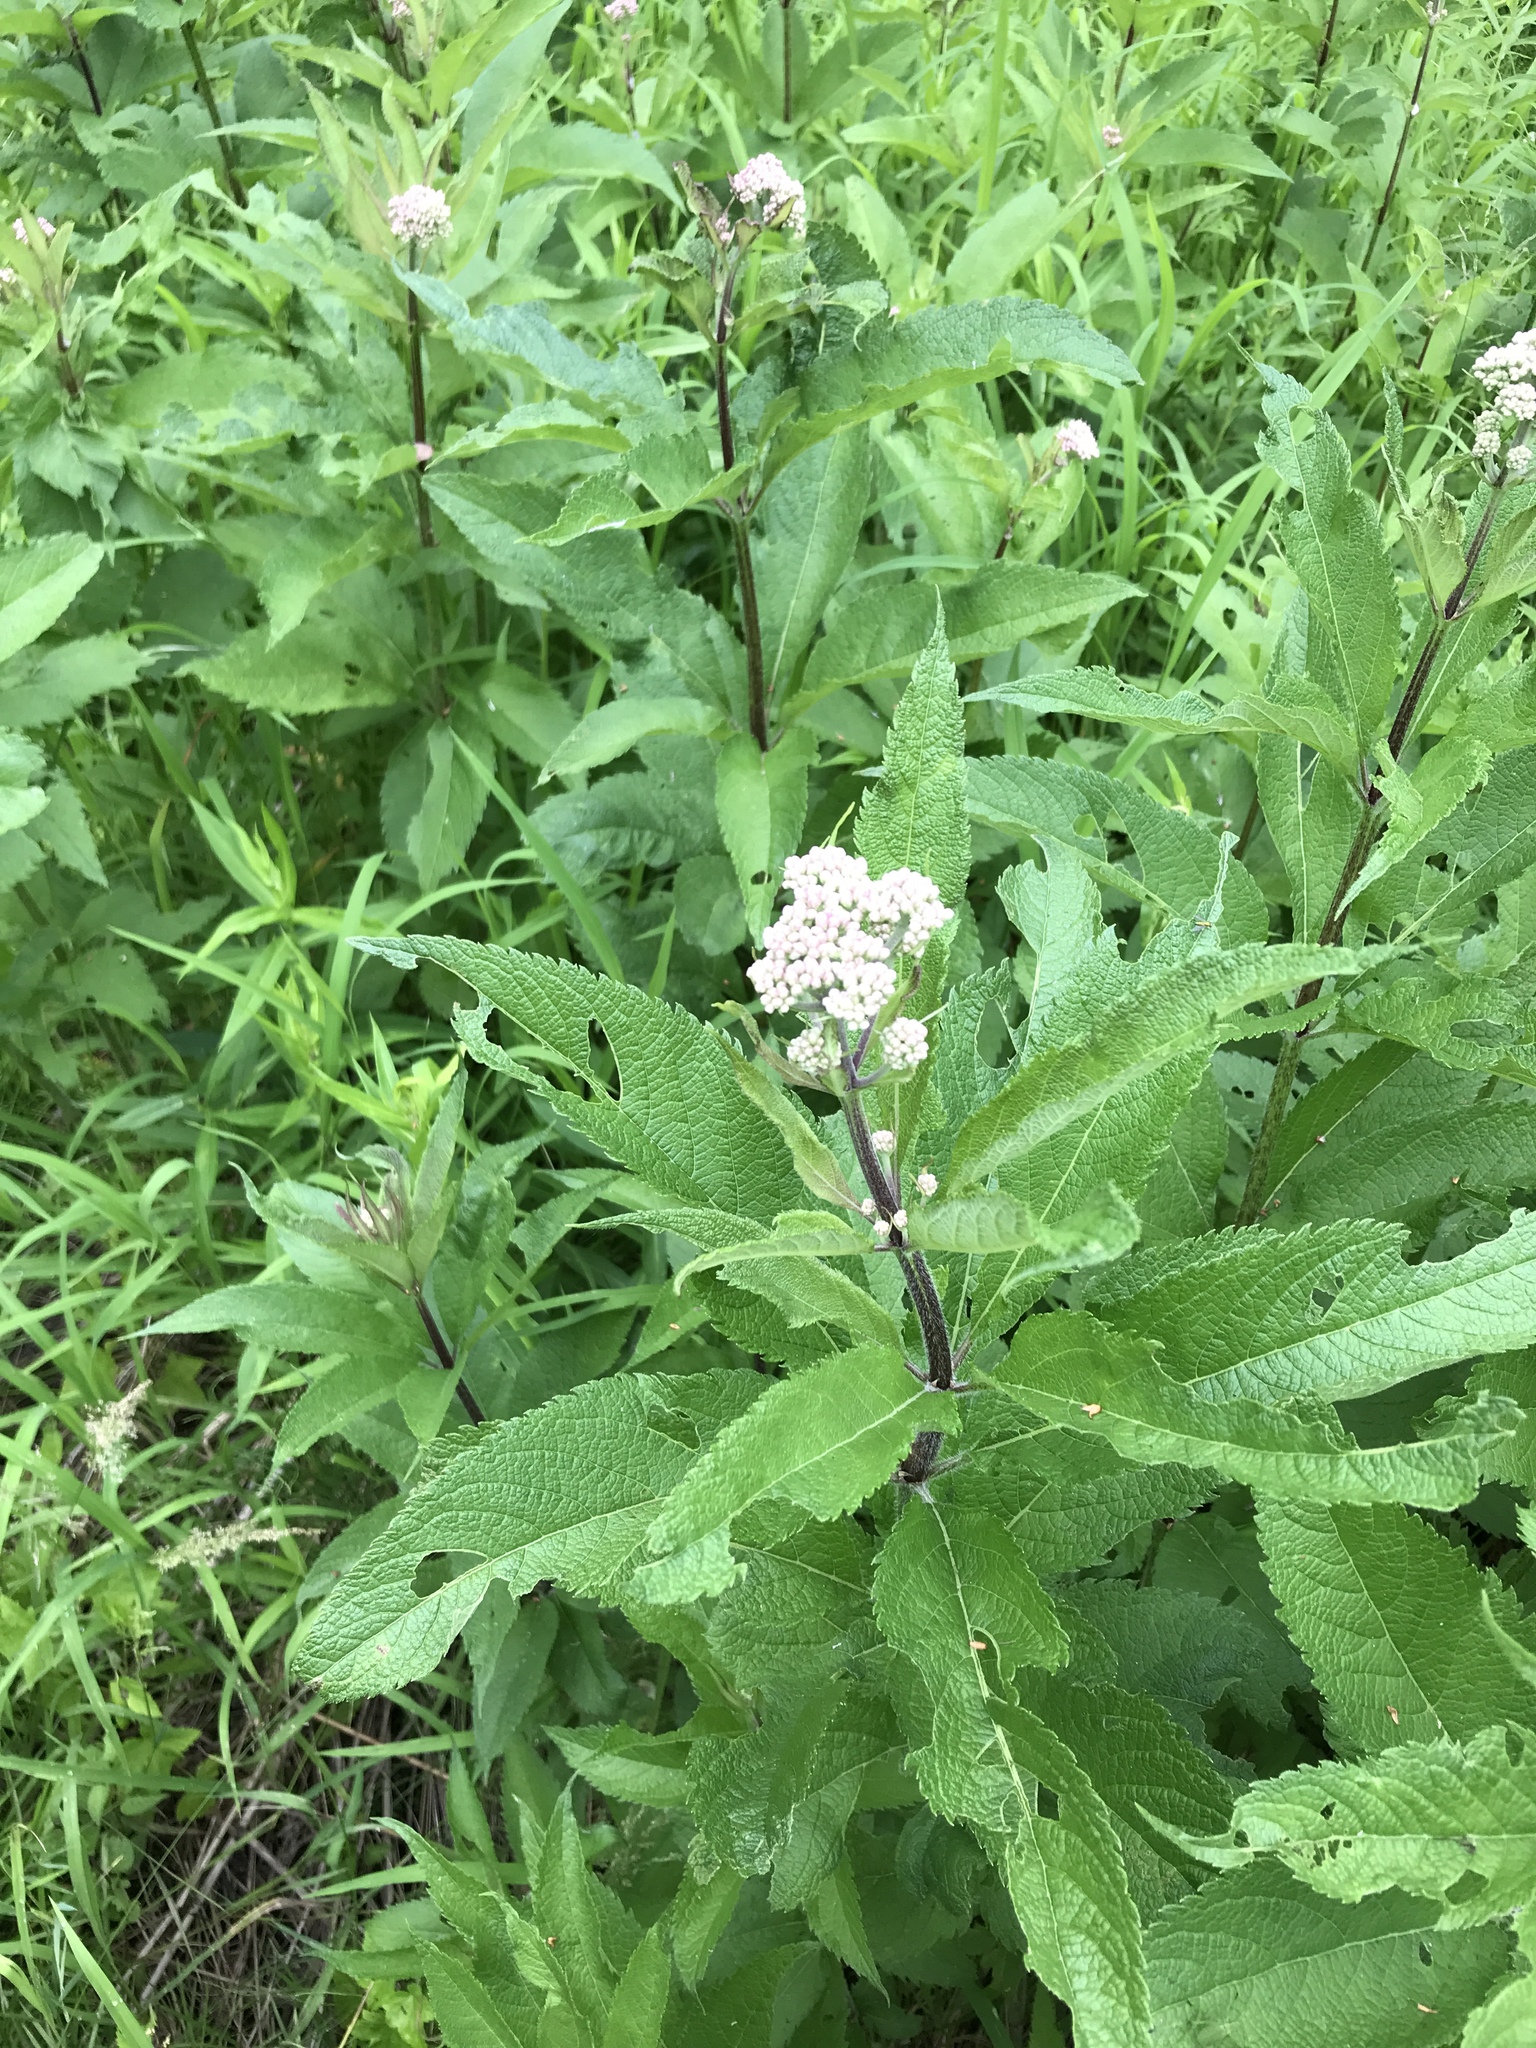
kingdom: Plantae
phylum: Tracheophyta
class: Magnoliopsida
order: Asterales
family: Asteraceae
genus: Eutrochium
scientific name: Eutrochium maculatum
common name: Spotted joe pye weed
